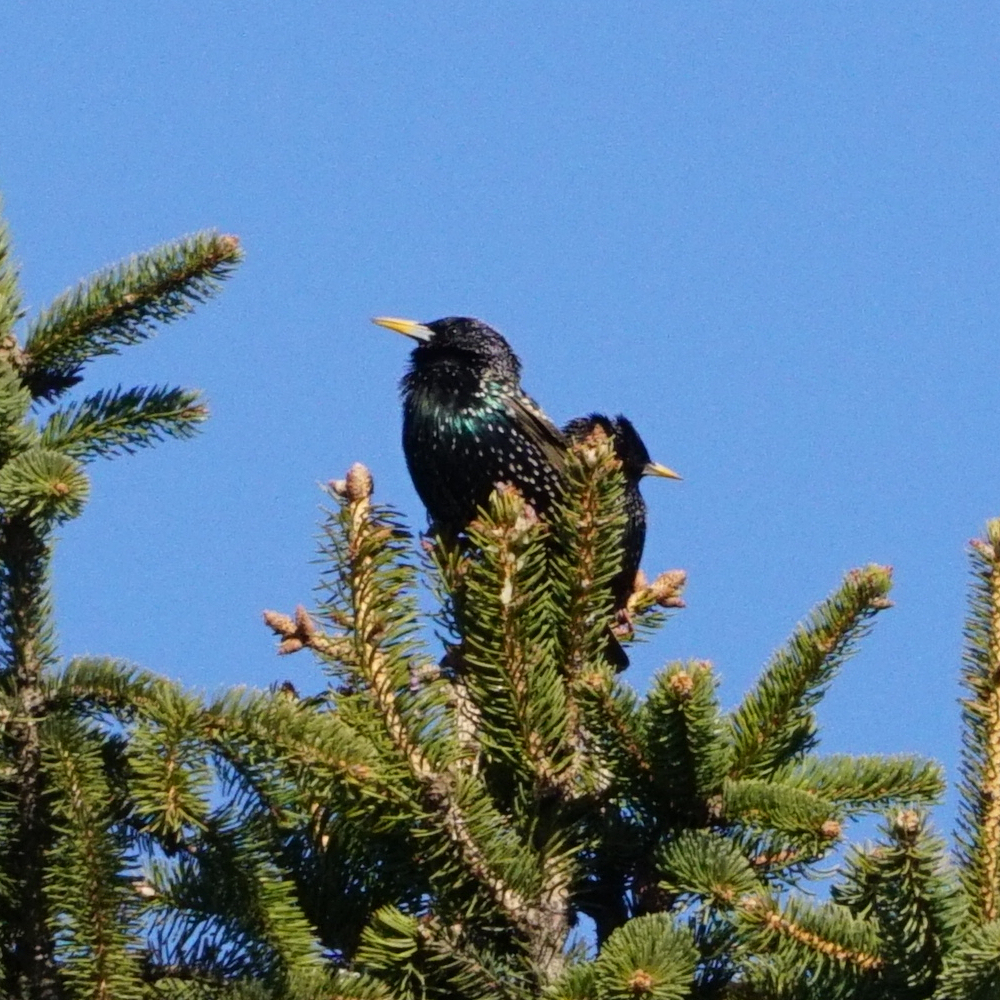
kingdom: Animalia
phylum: Chordata
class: Aves
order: Passeriformes
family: Sturnidae
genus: Sturnus
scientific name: Sturnus vulgaris
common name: Common starling
